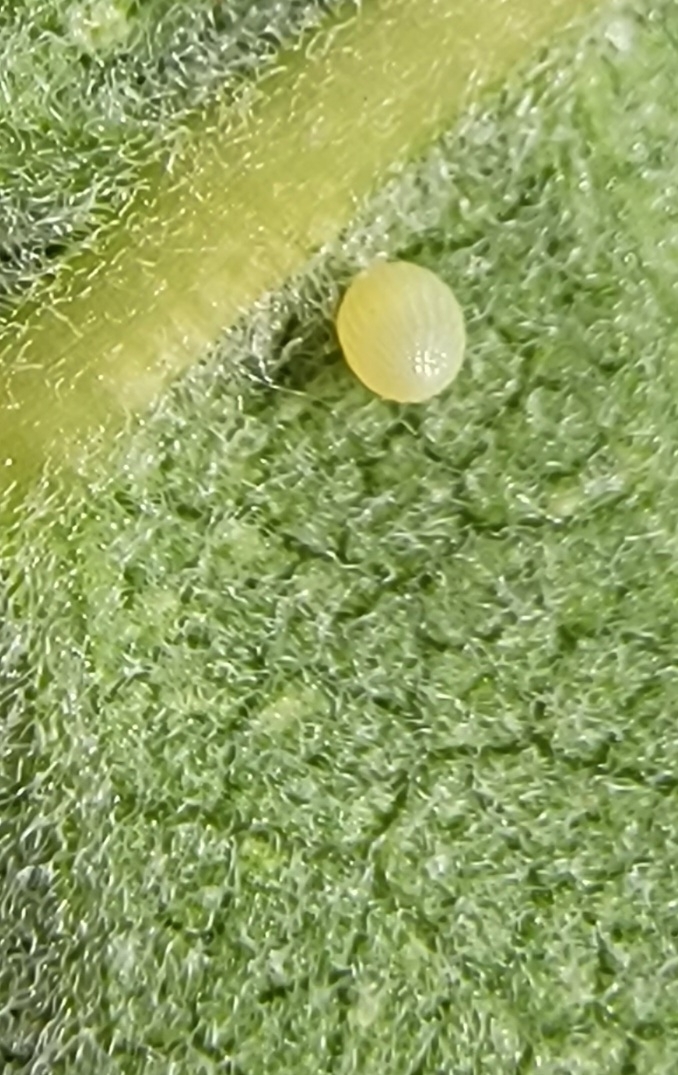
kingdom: Animalia
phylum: Arthropoda
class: Insecta
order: Lepidoptera
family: Nymphalidae
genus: Danaus
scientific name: Danaus plexippus
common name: Monarch
